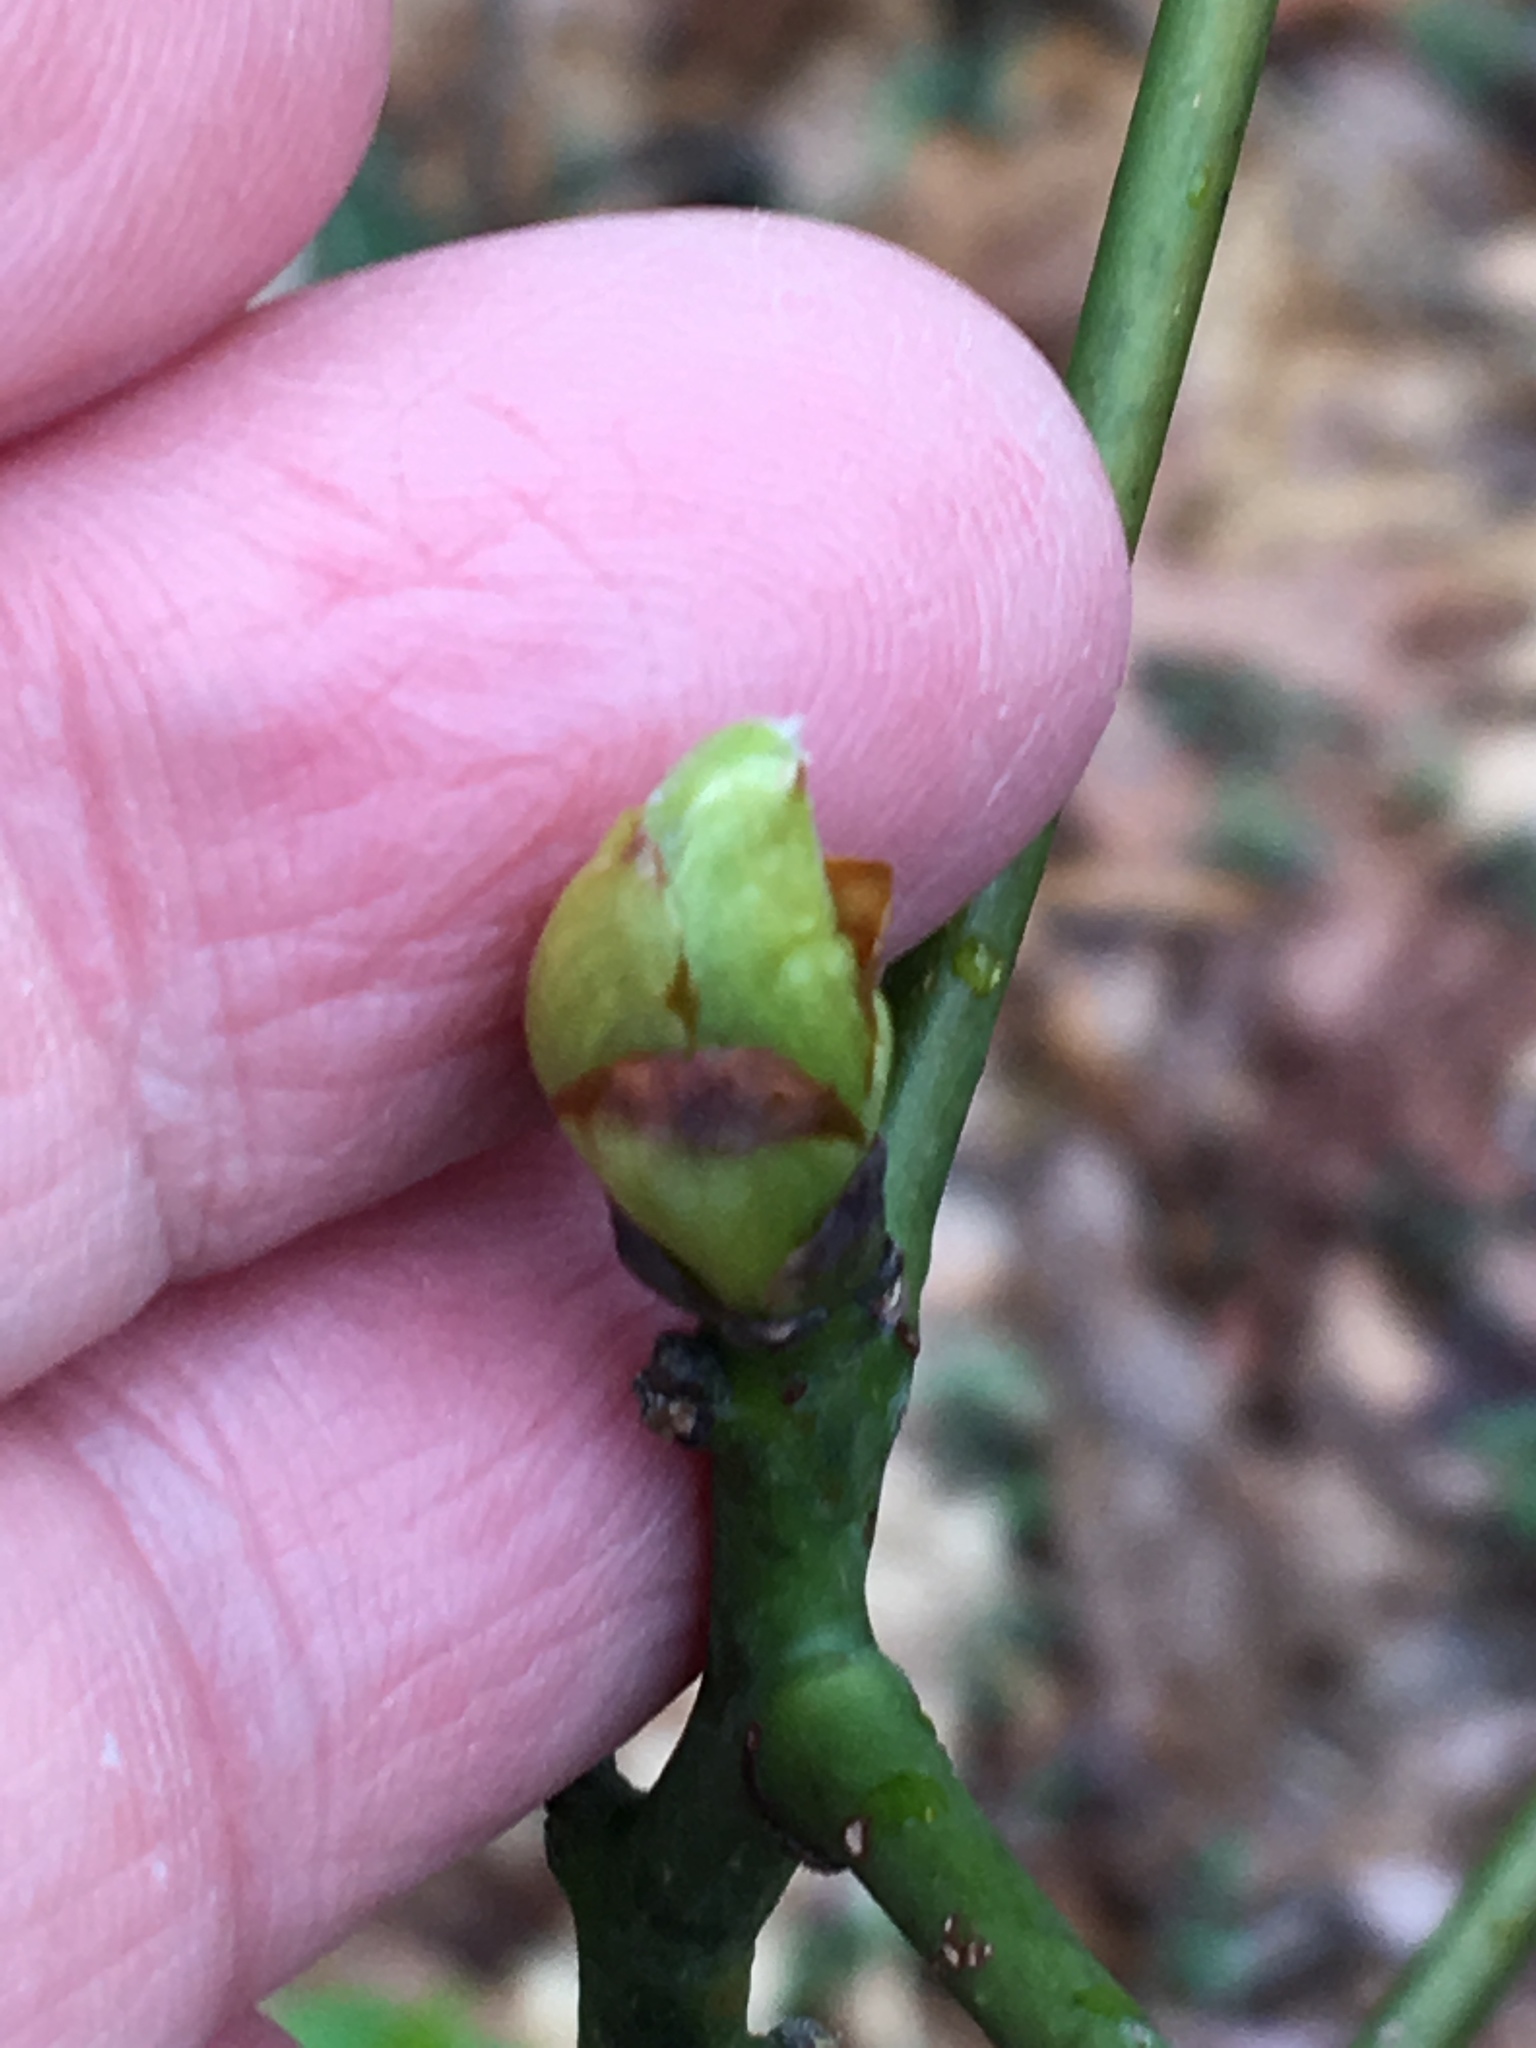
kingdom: Plantae
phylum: Tracheophyta
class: Magnoliopsida
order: Laurales
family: Lauraceae
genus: Sassafras
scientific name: Sassafras albidum
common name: Sassafras
